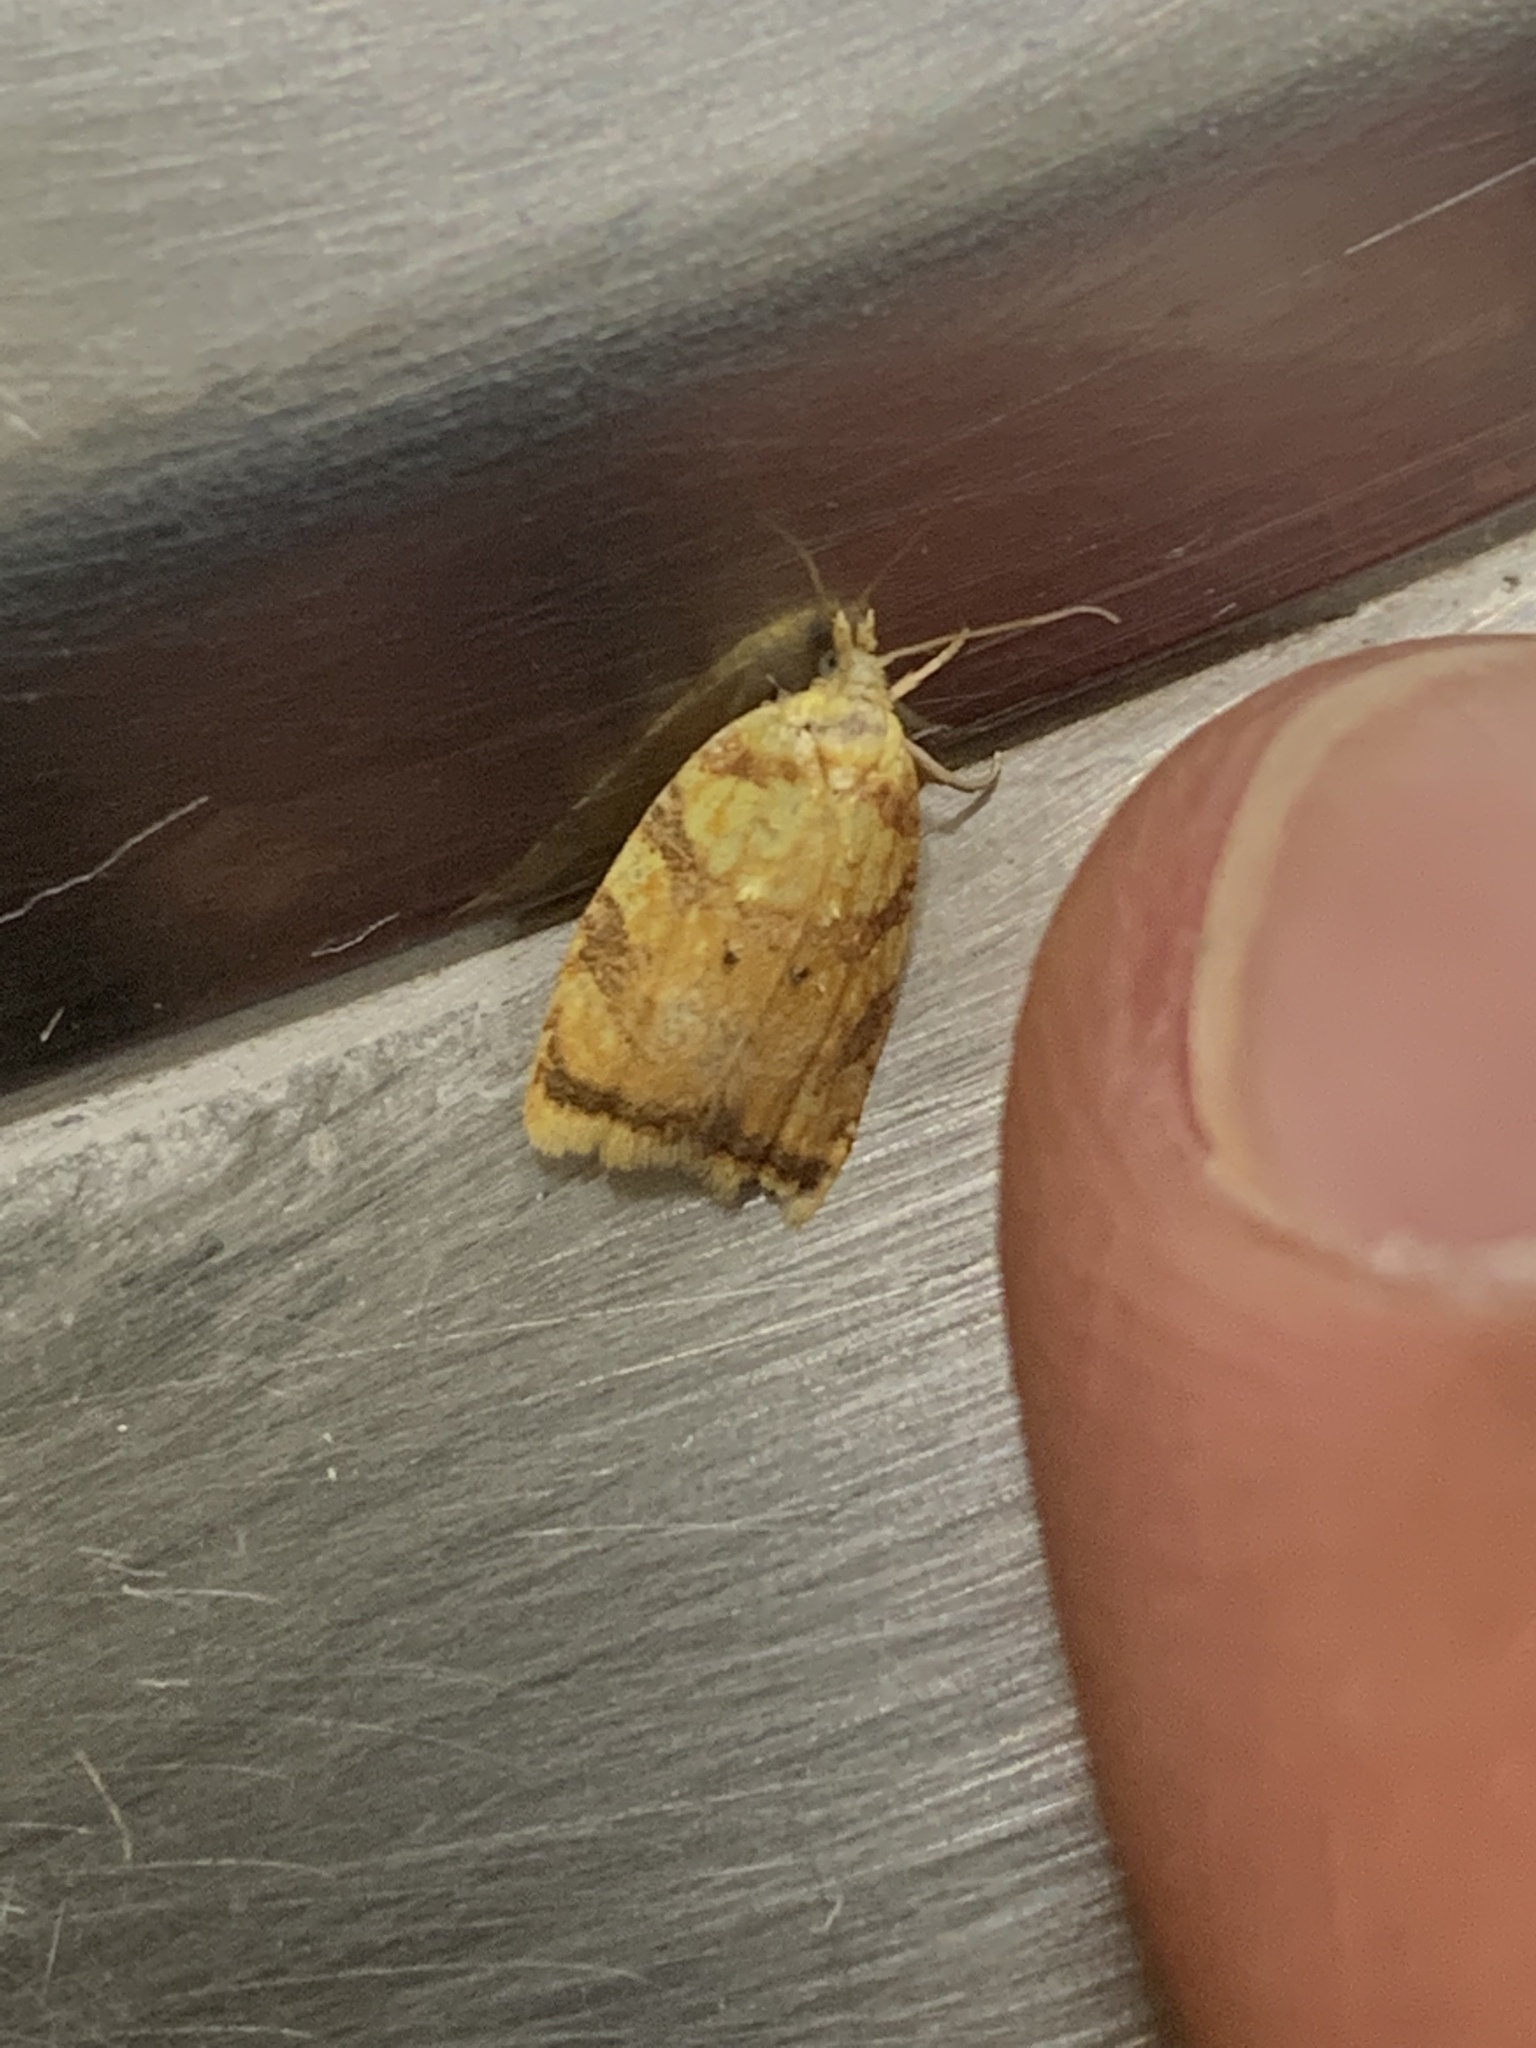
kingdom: Animalia
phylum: Arthropoda
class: Insecta
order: Lepidoptera
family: Tortricidae
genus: Acleris
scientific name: Acleris albicomana
